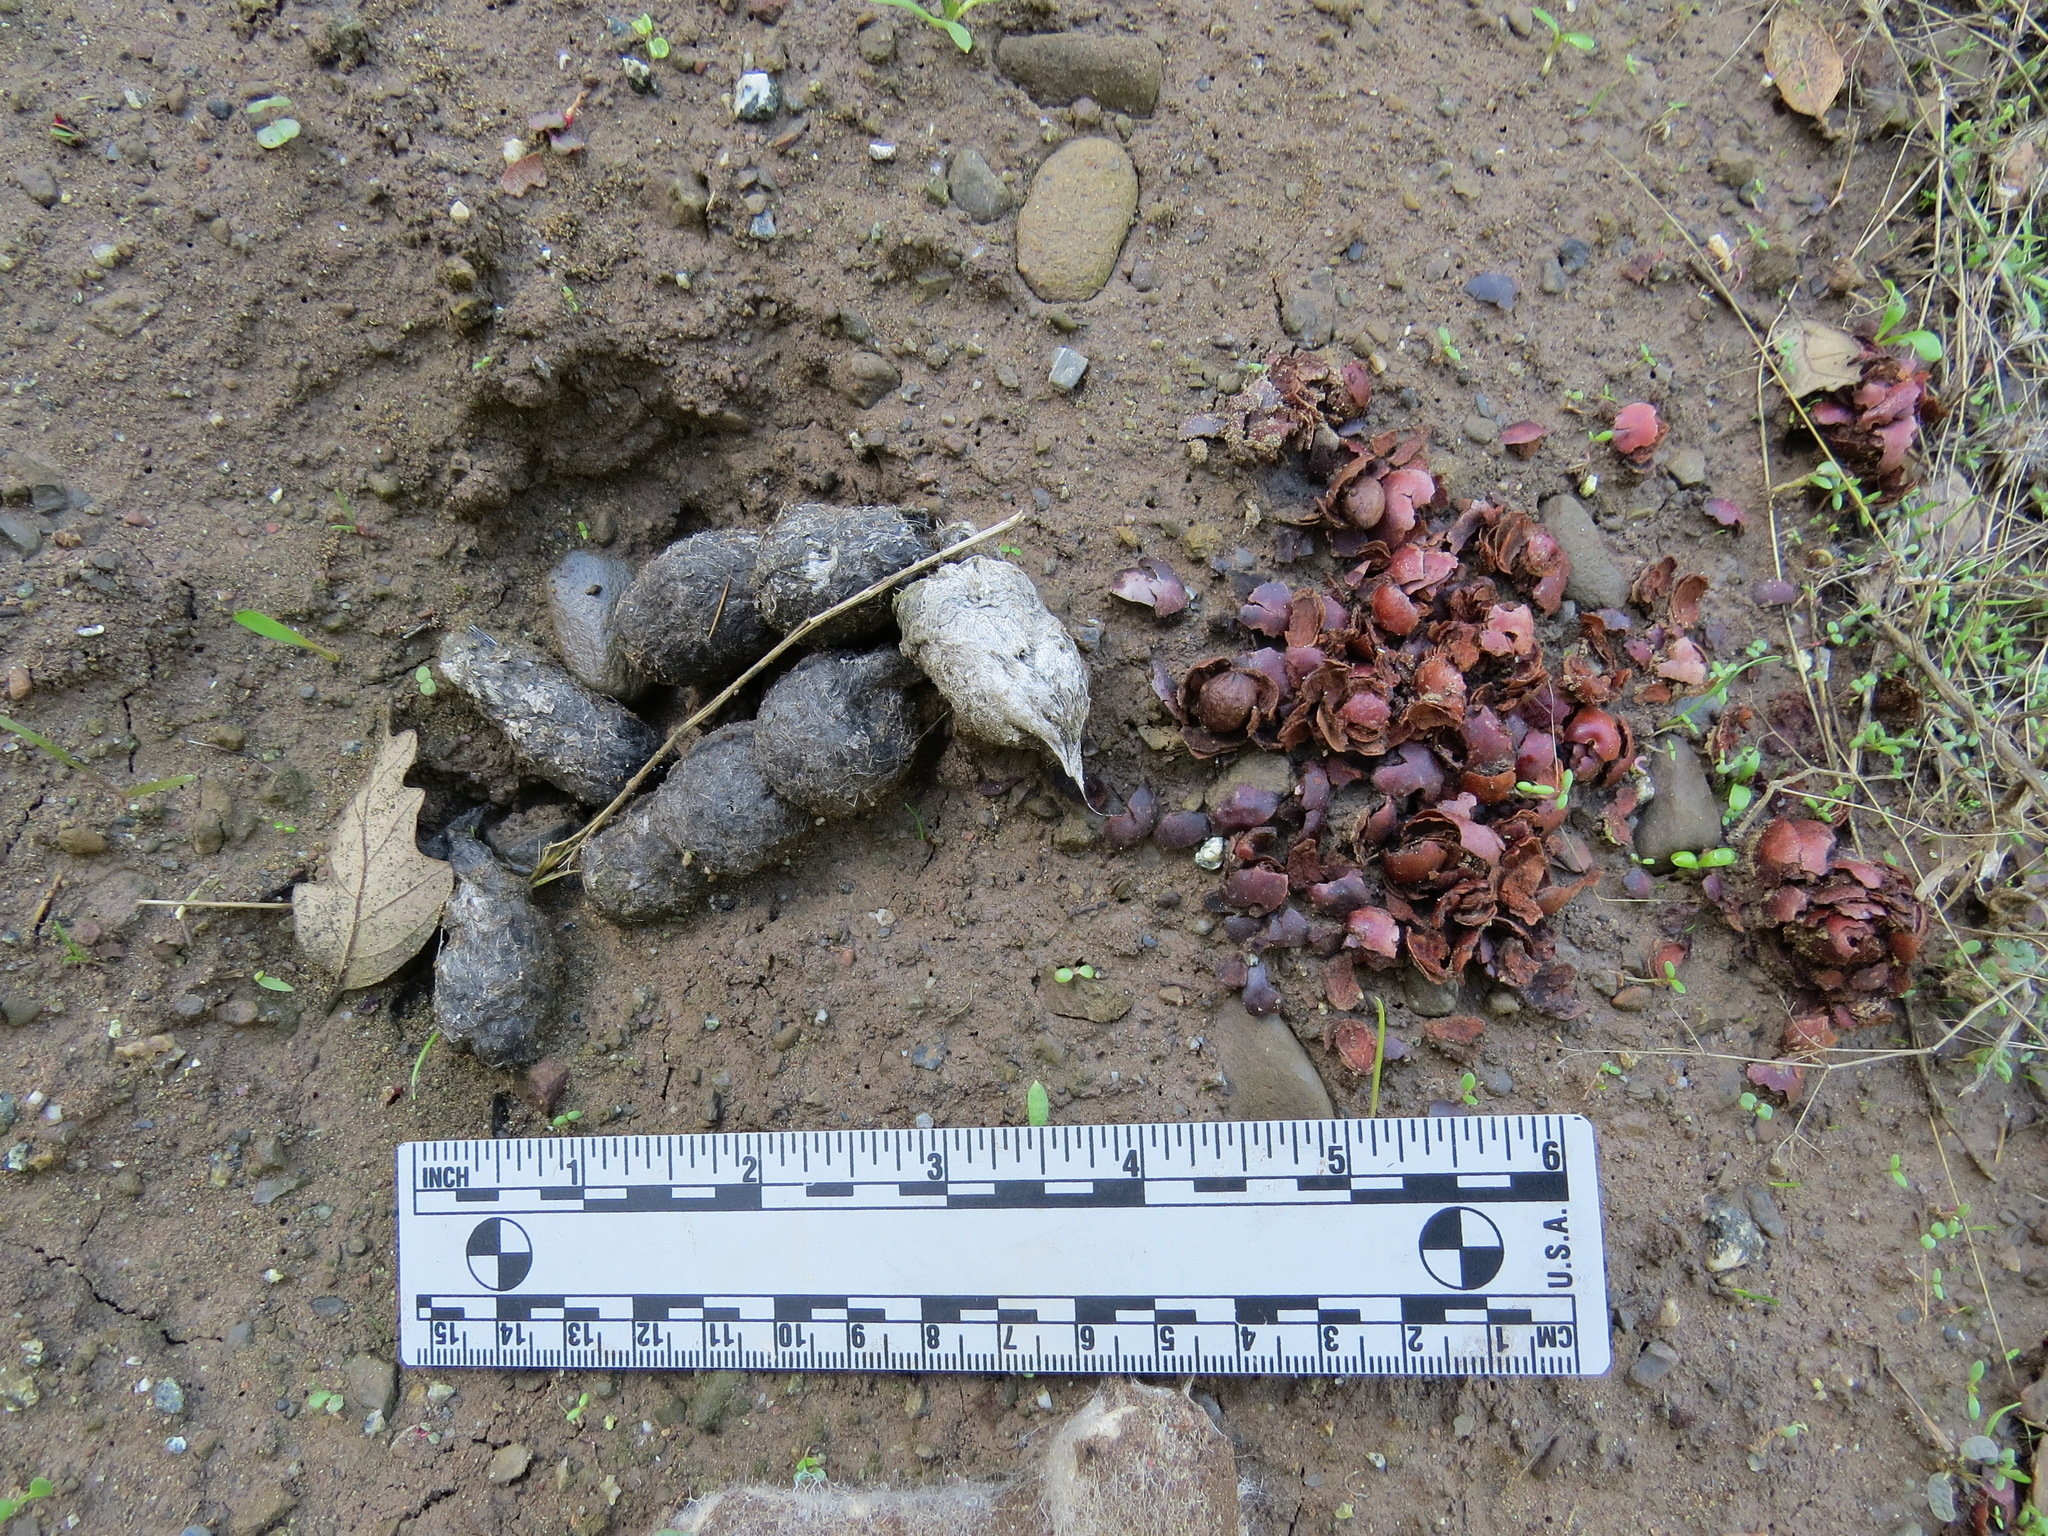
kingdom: Animalia
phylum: Chordata
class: Mammalia
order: Carnivora
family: Felidae
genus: Lynx
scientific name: Lynx rufus
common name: Bobcat
